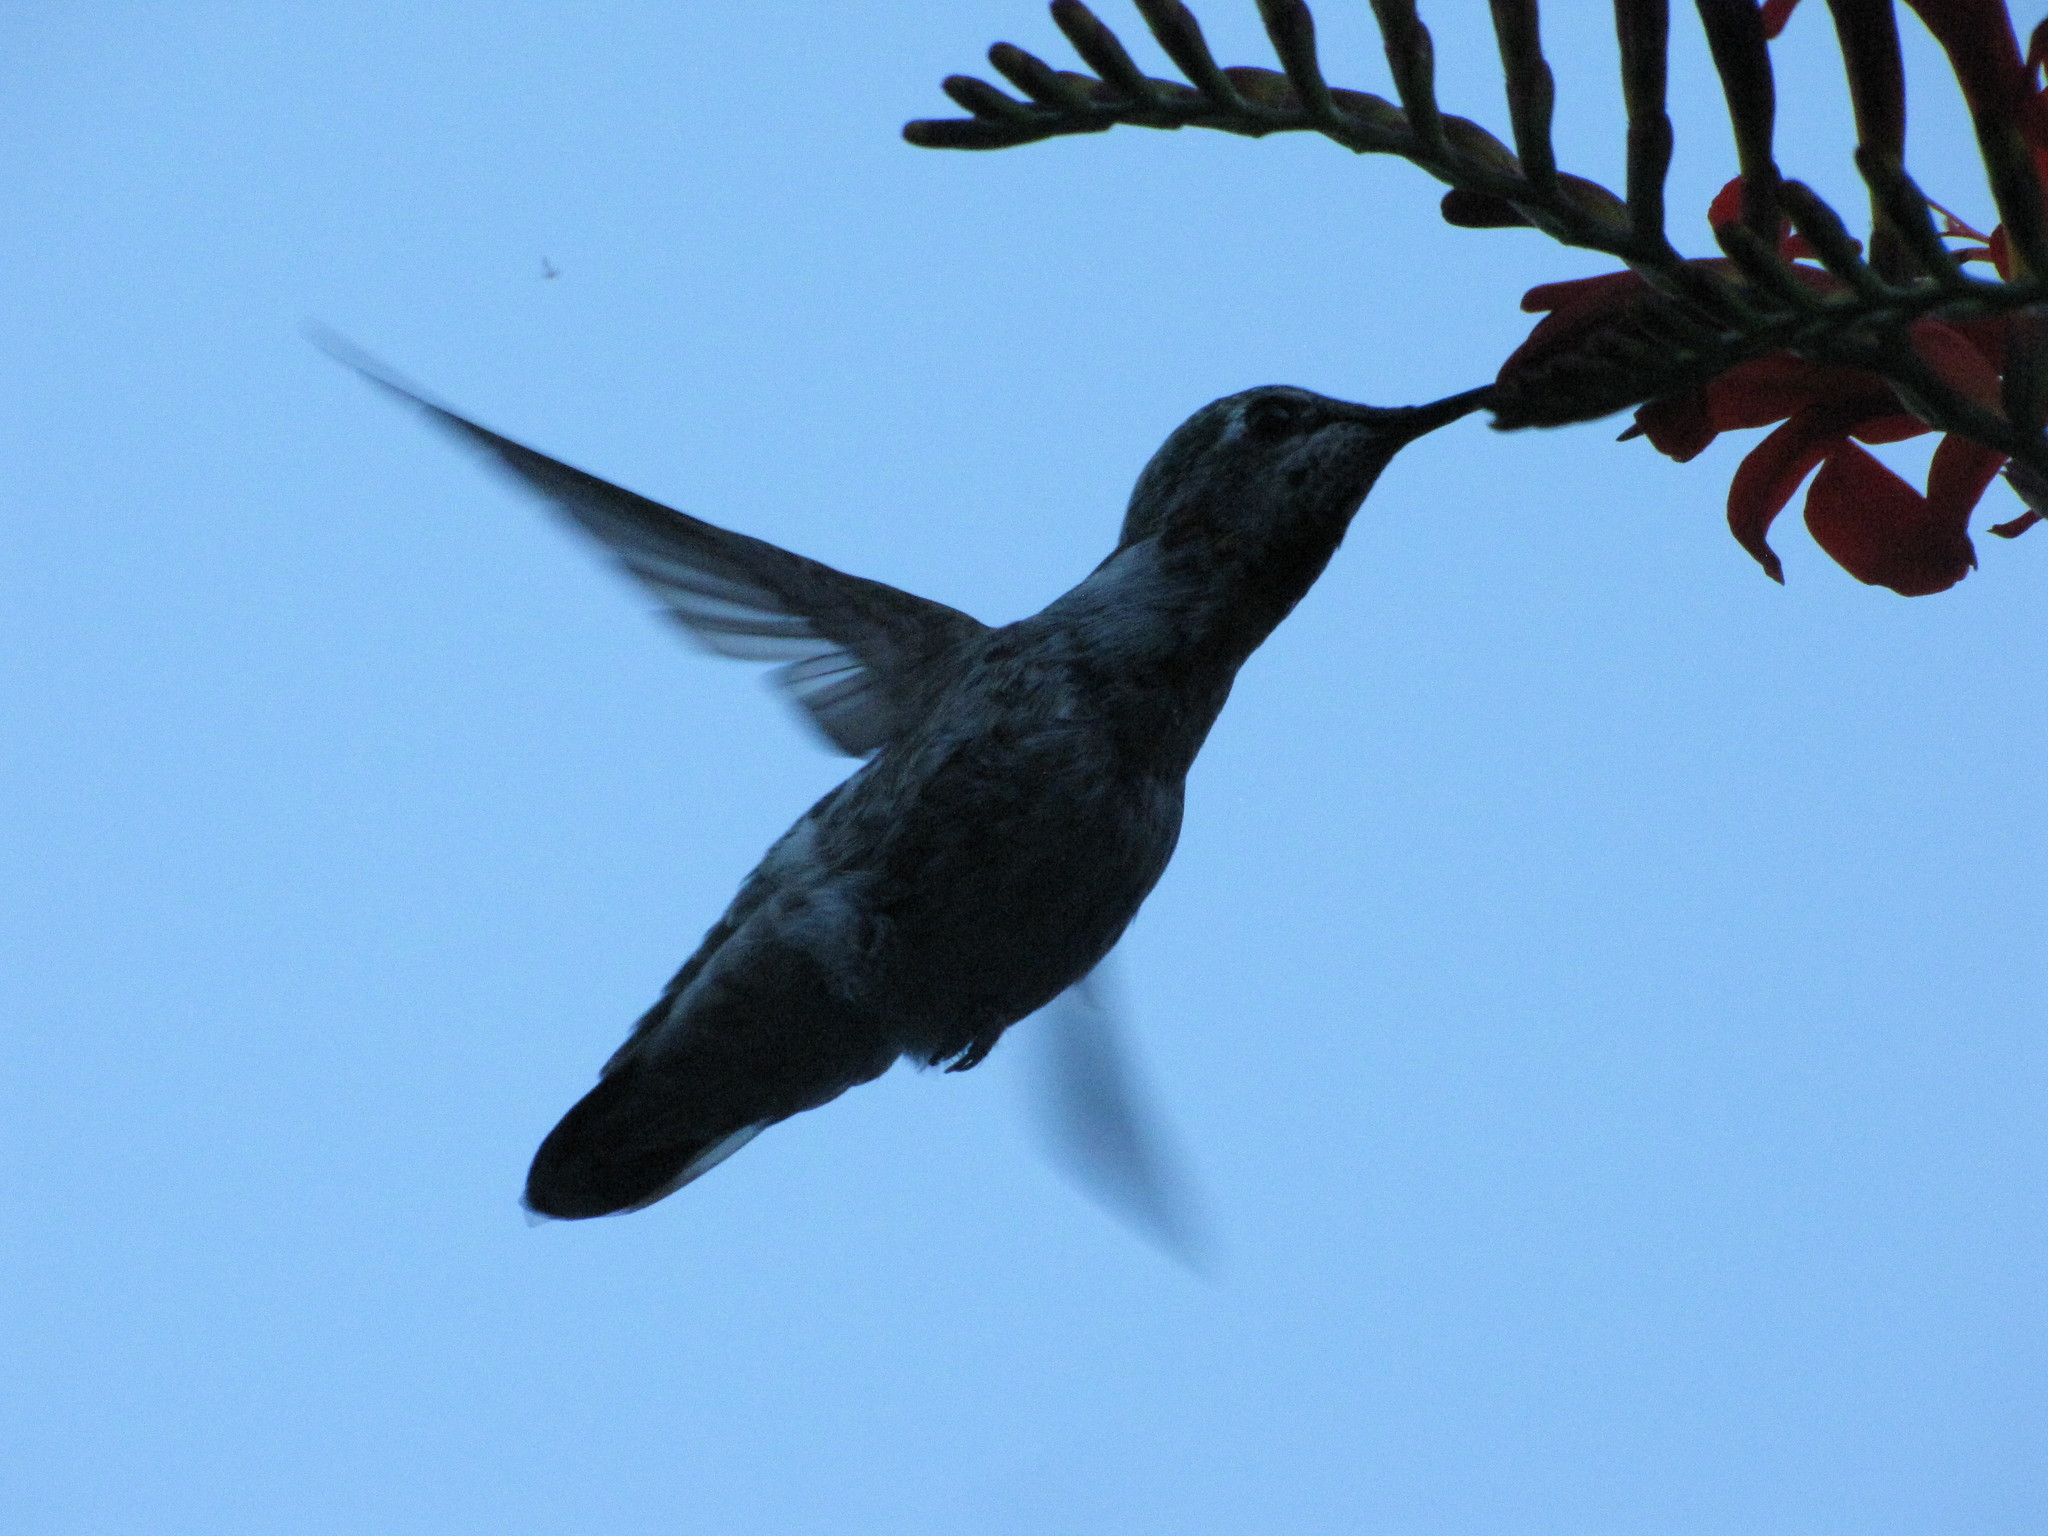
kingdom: Animalia
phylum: Chordata
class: Aves
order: Apodiformes
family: Trochilidae
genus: Calypte
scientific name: Calypte anna
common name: Anna's hummingbird
